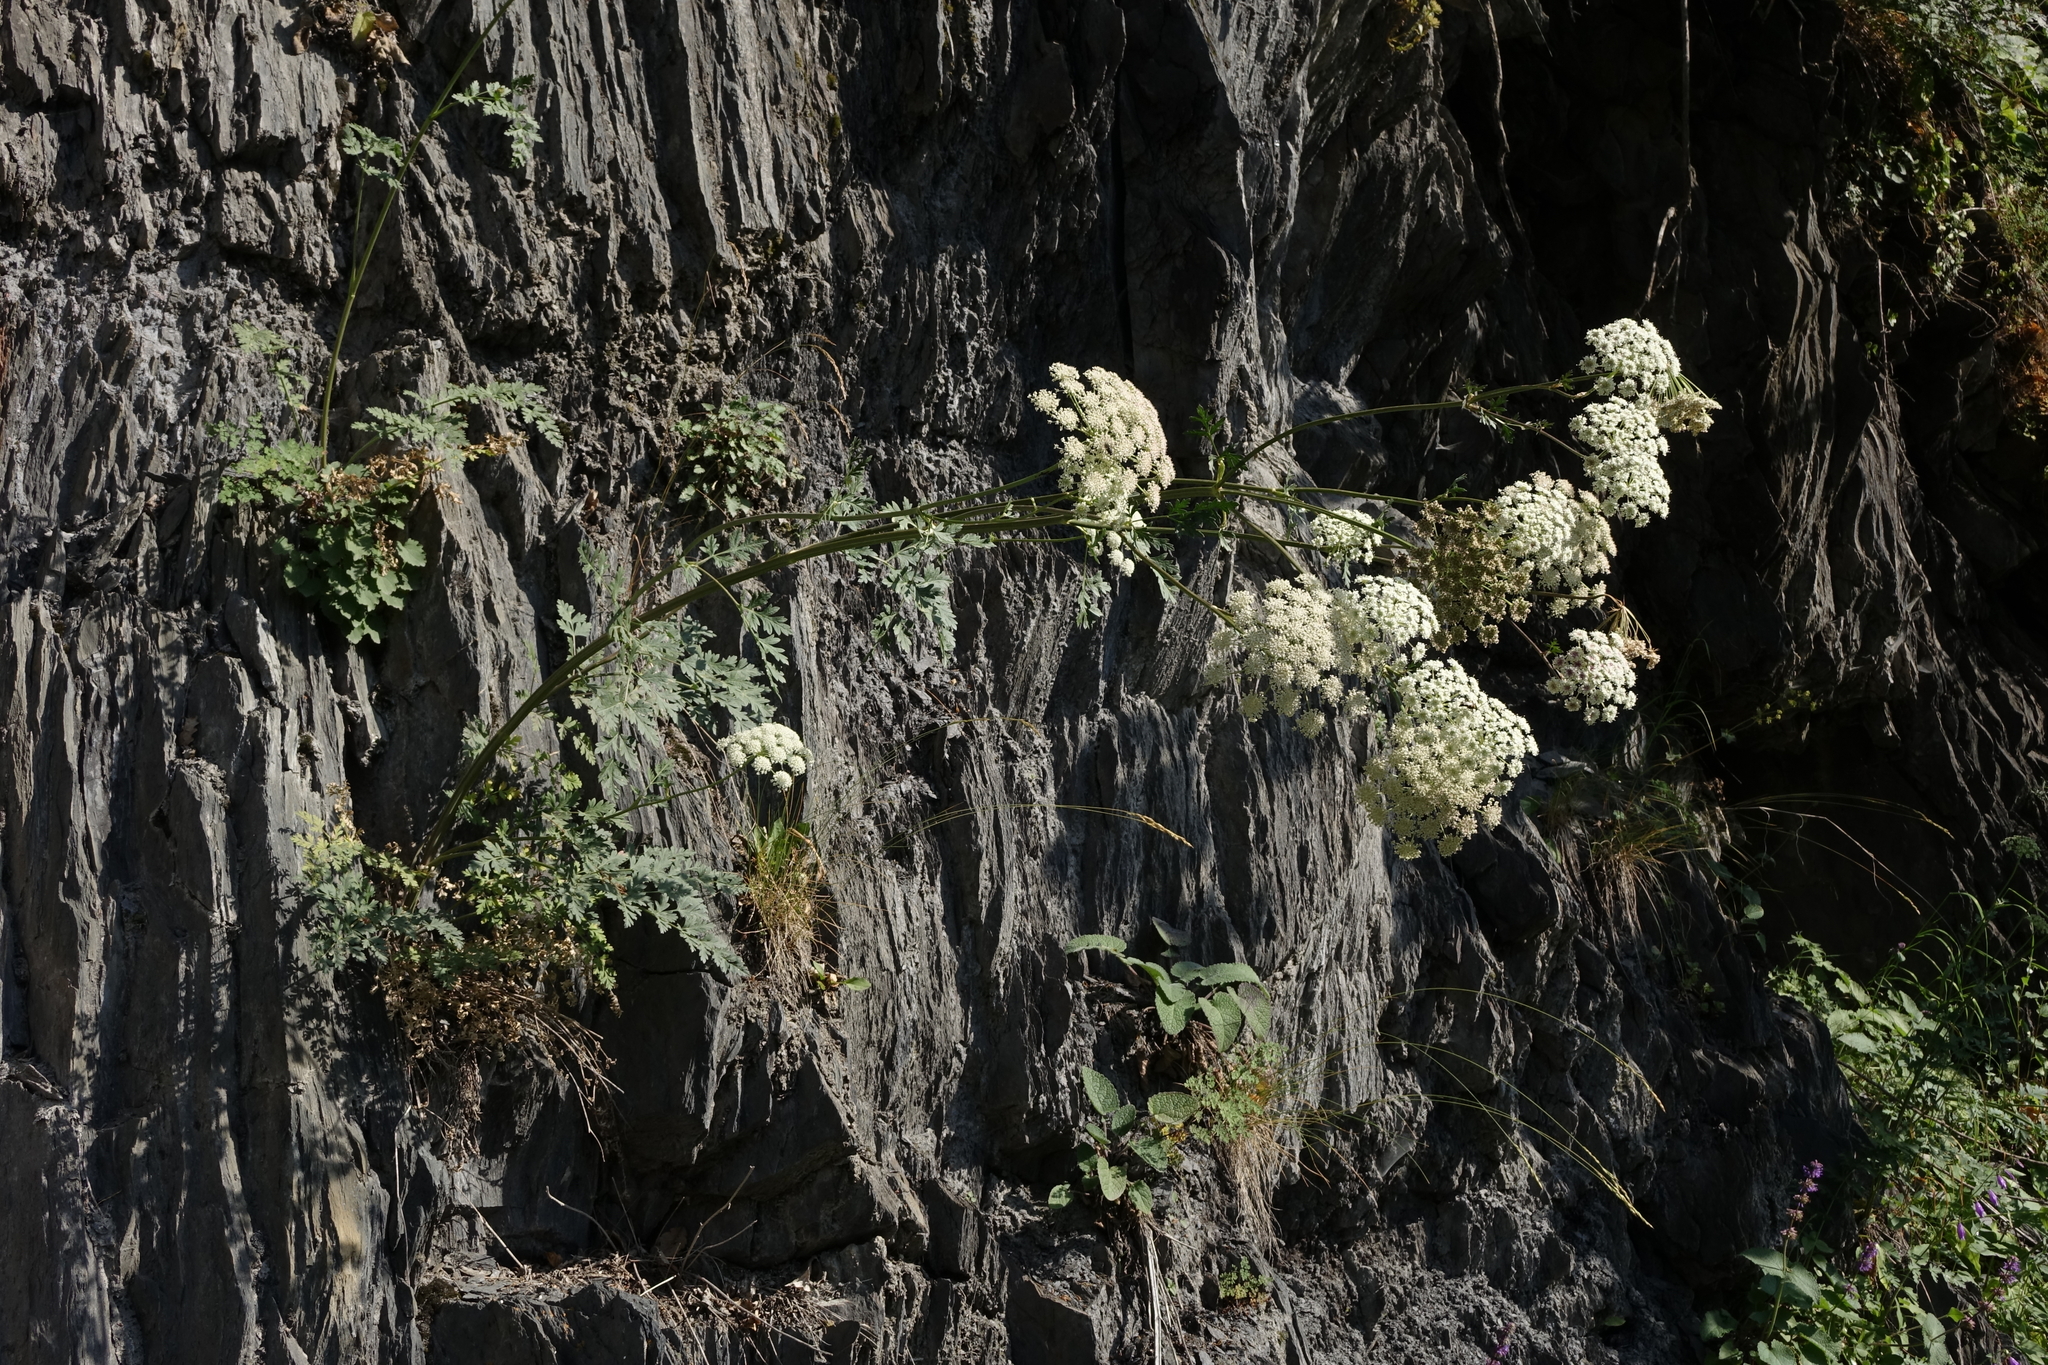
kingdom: Plantae
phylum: Tracheophyta
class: Magnoliopsida
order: Apiales
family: Apiaceae
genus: Seseli
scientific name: Seseli libanotis
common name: Mooncarrot
